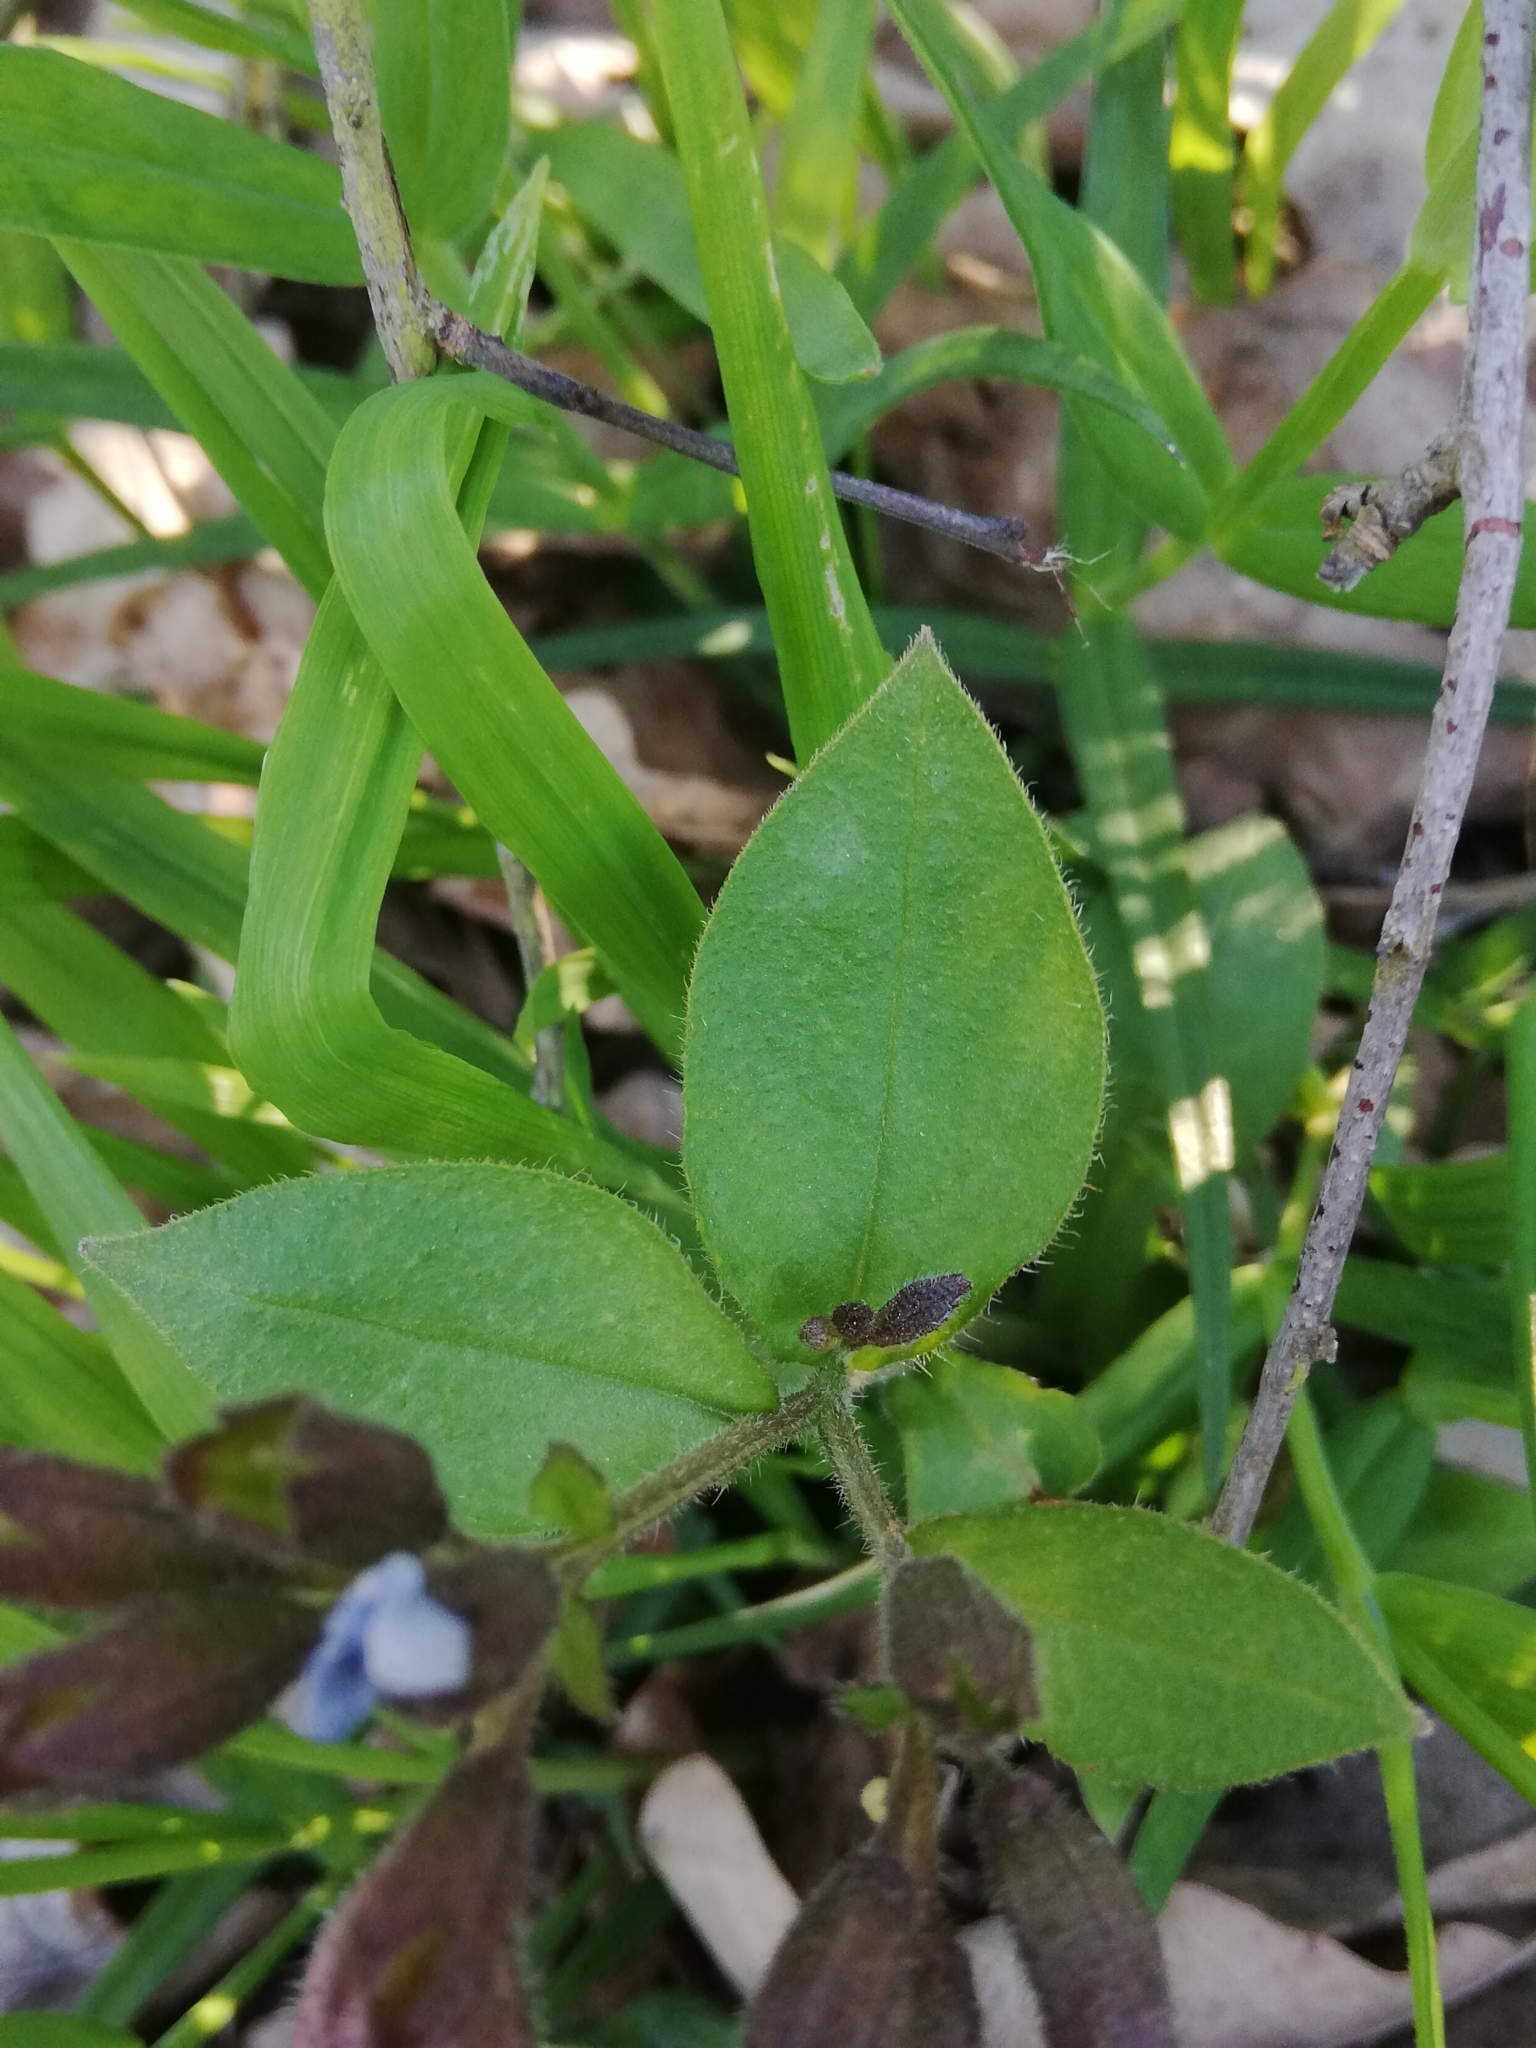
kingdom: Plantae
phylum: Tracheophyta
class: Magnoliopsida
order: Boraginales
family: Boraginaceae
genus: Pulmonaria
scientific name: Pulmonaria obscura
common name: Suffolk lungwort
